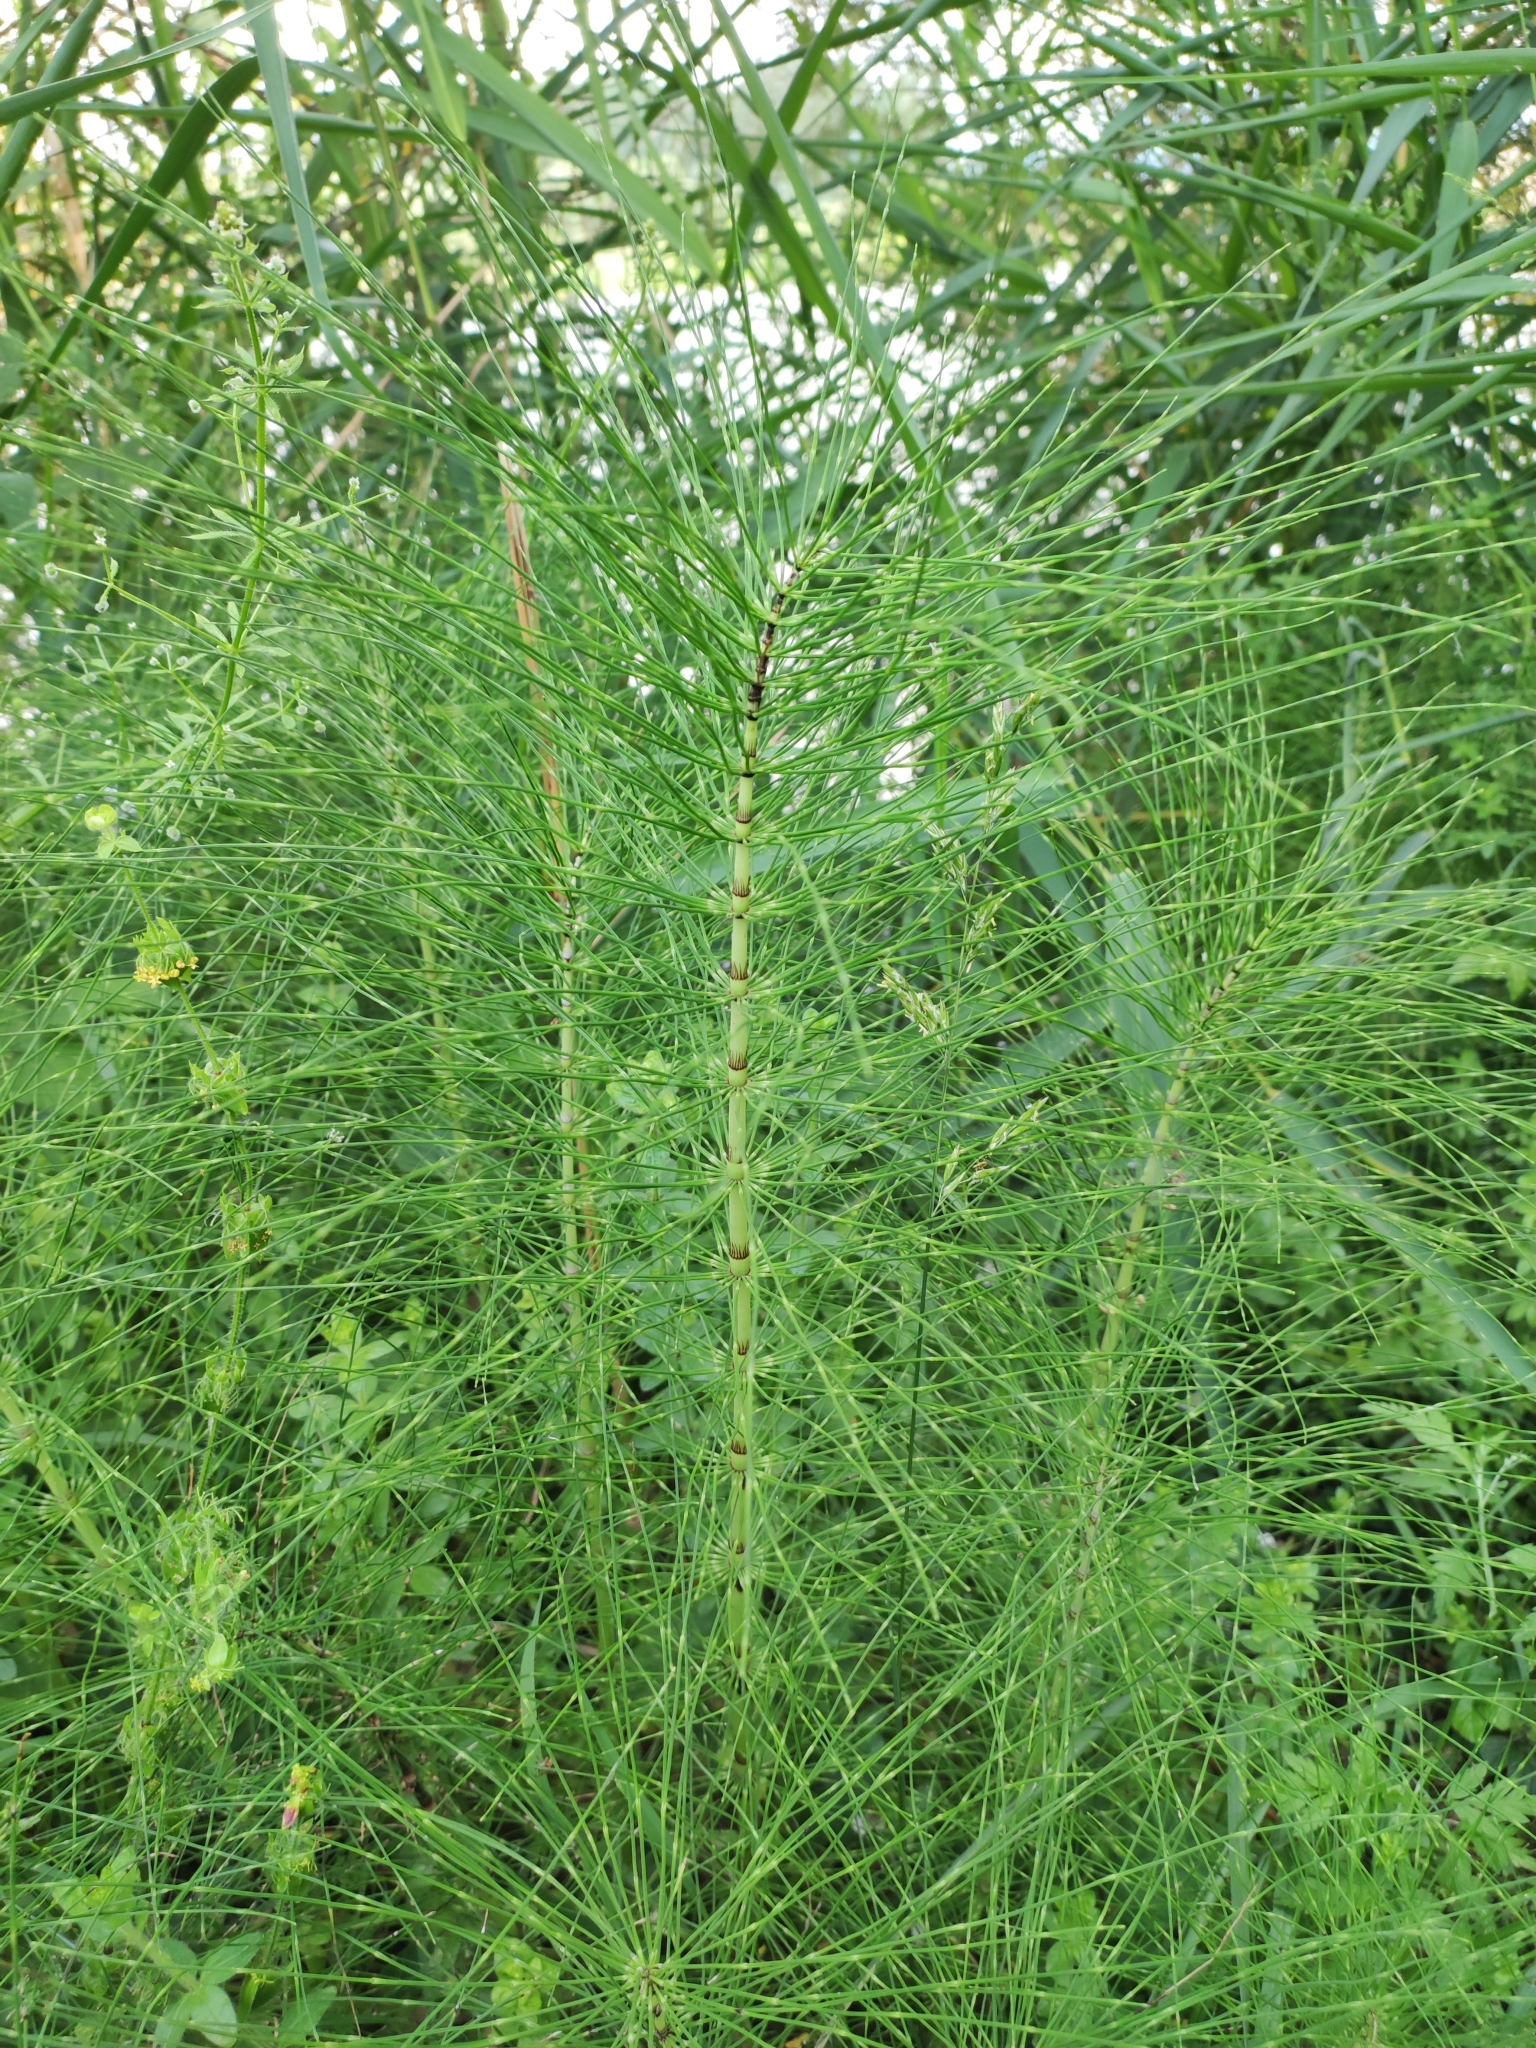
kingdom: Plantae
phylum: Tracheophyta
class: Polypodiopsida
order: Equisetales
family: Equisetaceae
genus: Equisetum
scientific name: Equisetum telmateia
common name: Great horsetail
